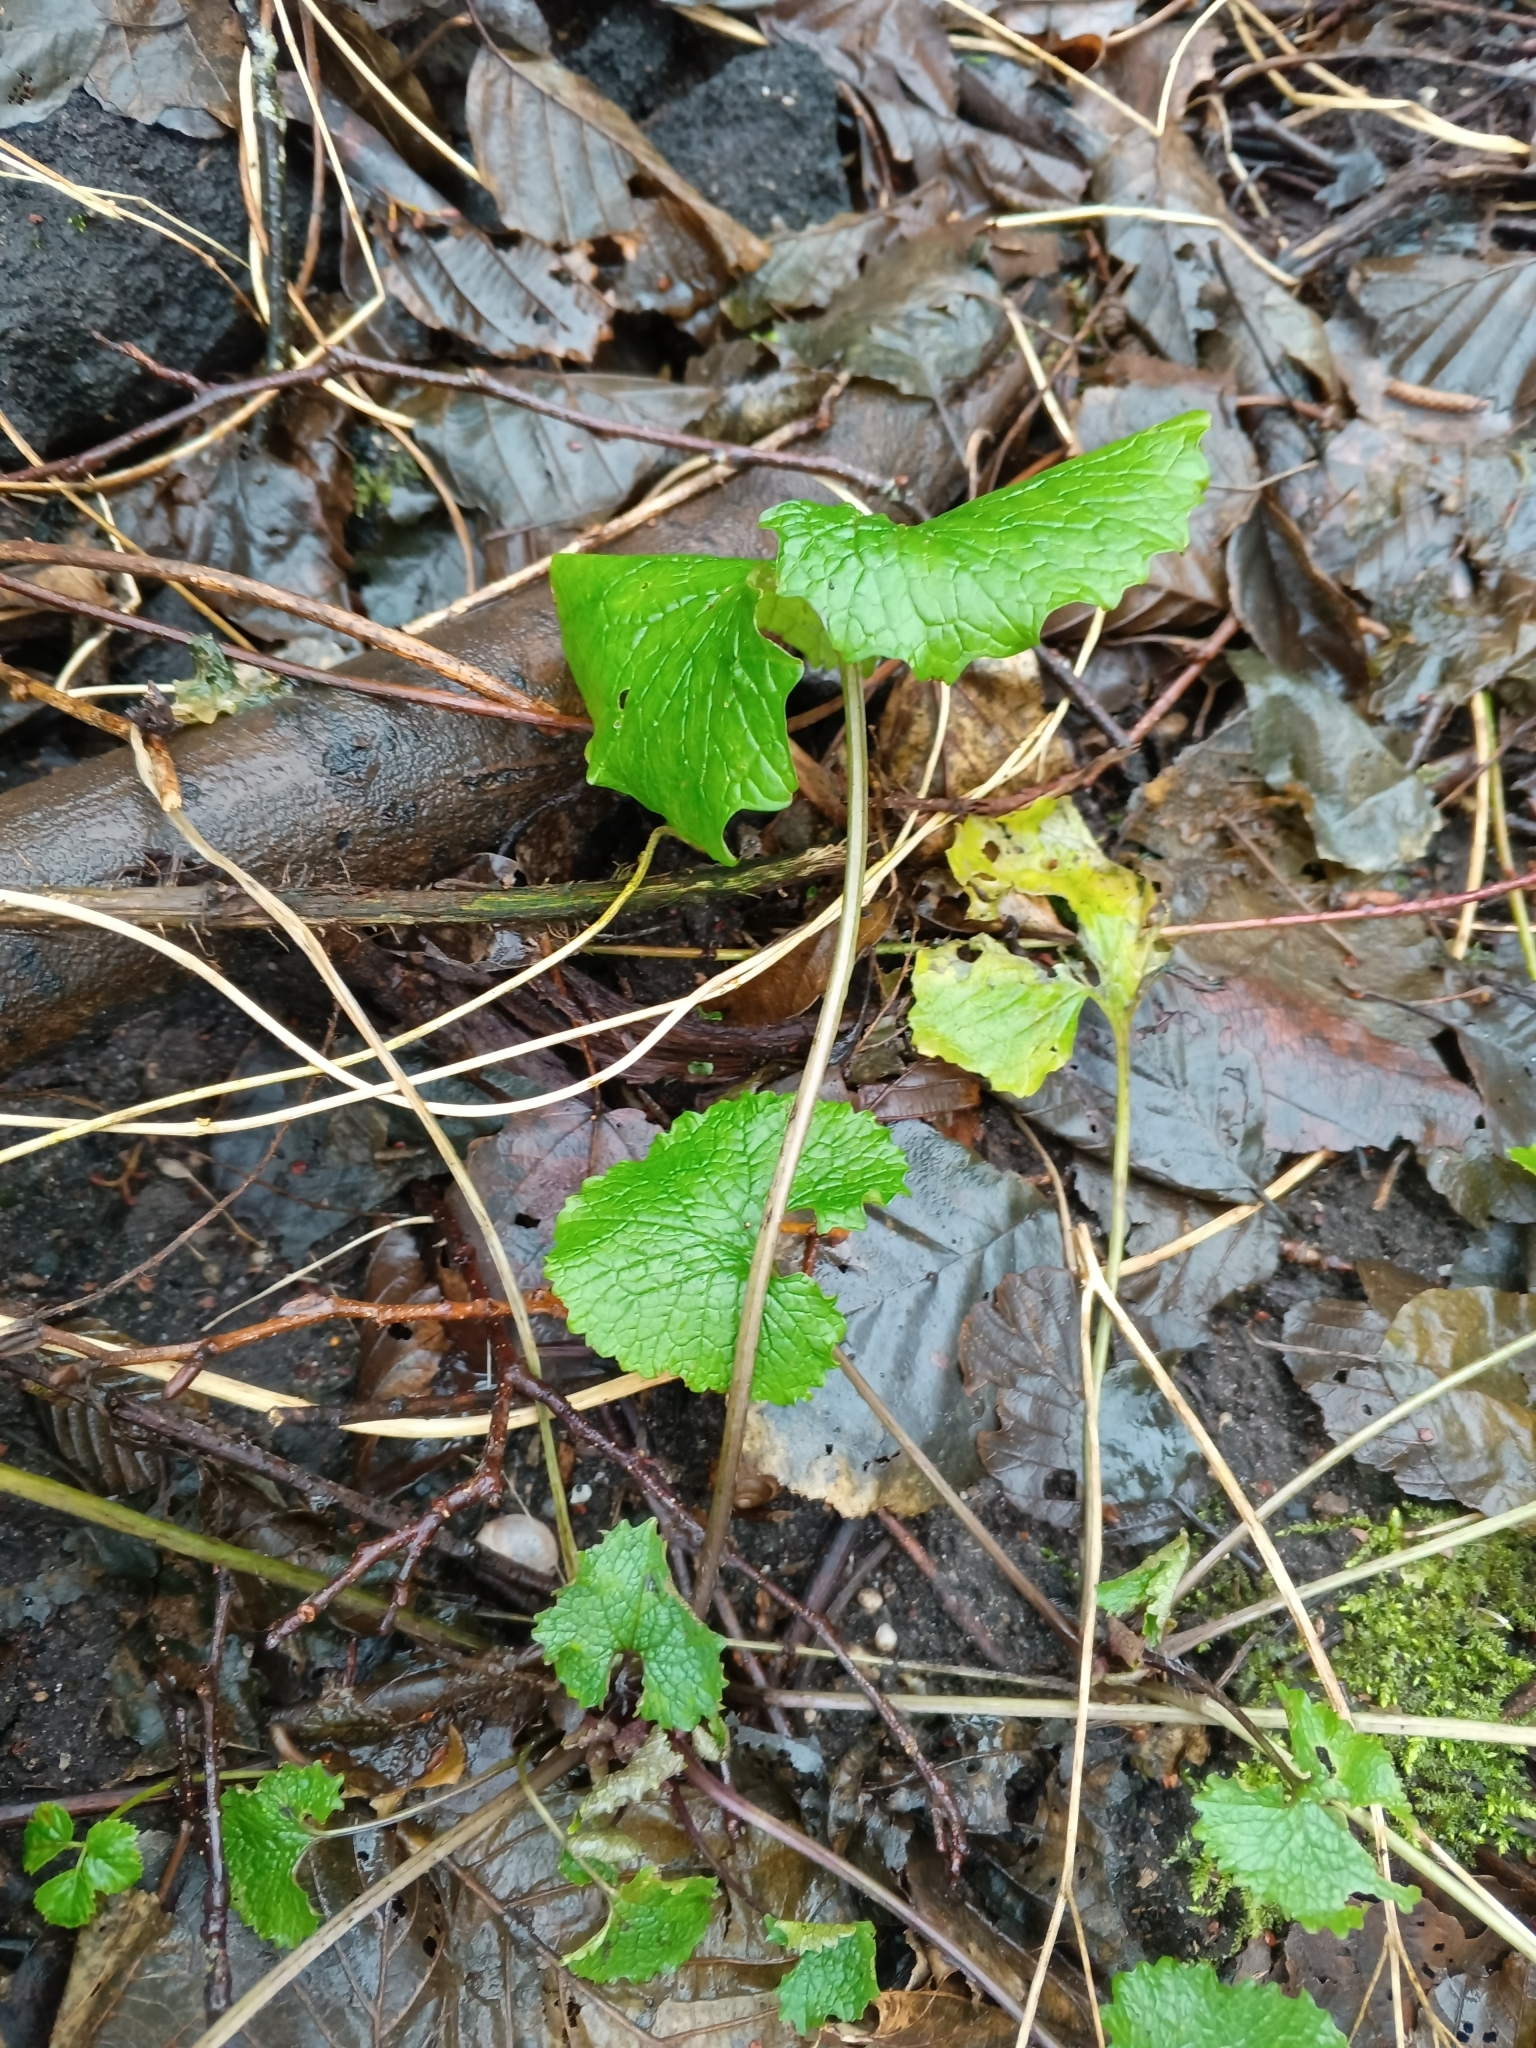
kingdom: Plantae
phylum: Tracheophyta
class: Magnoliopsida
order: Brassicales
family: Brassicaceae
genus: Alliaria
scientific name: Alliaria petiolata
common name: Garlic mustard
